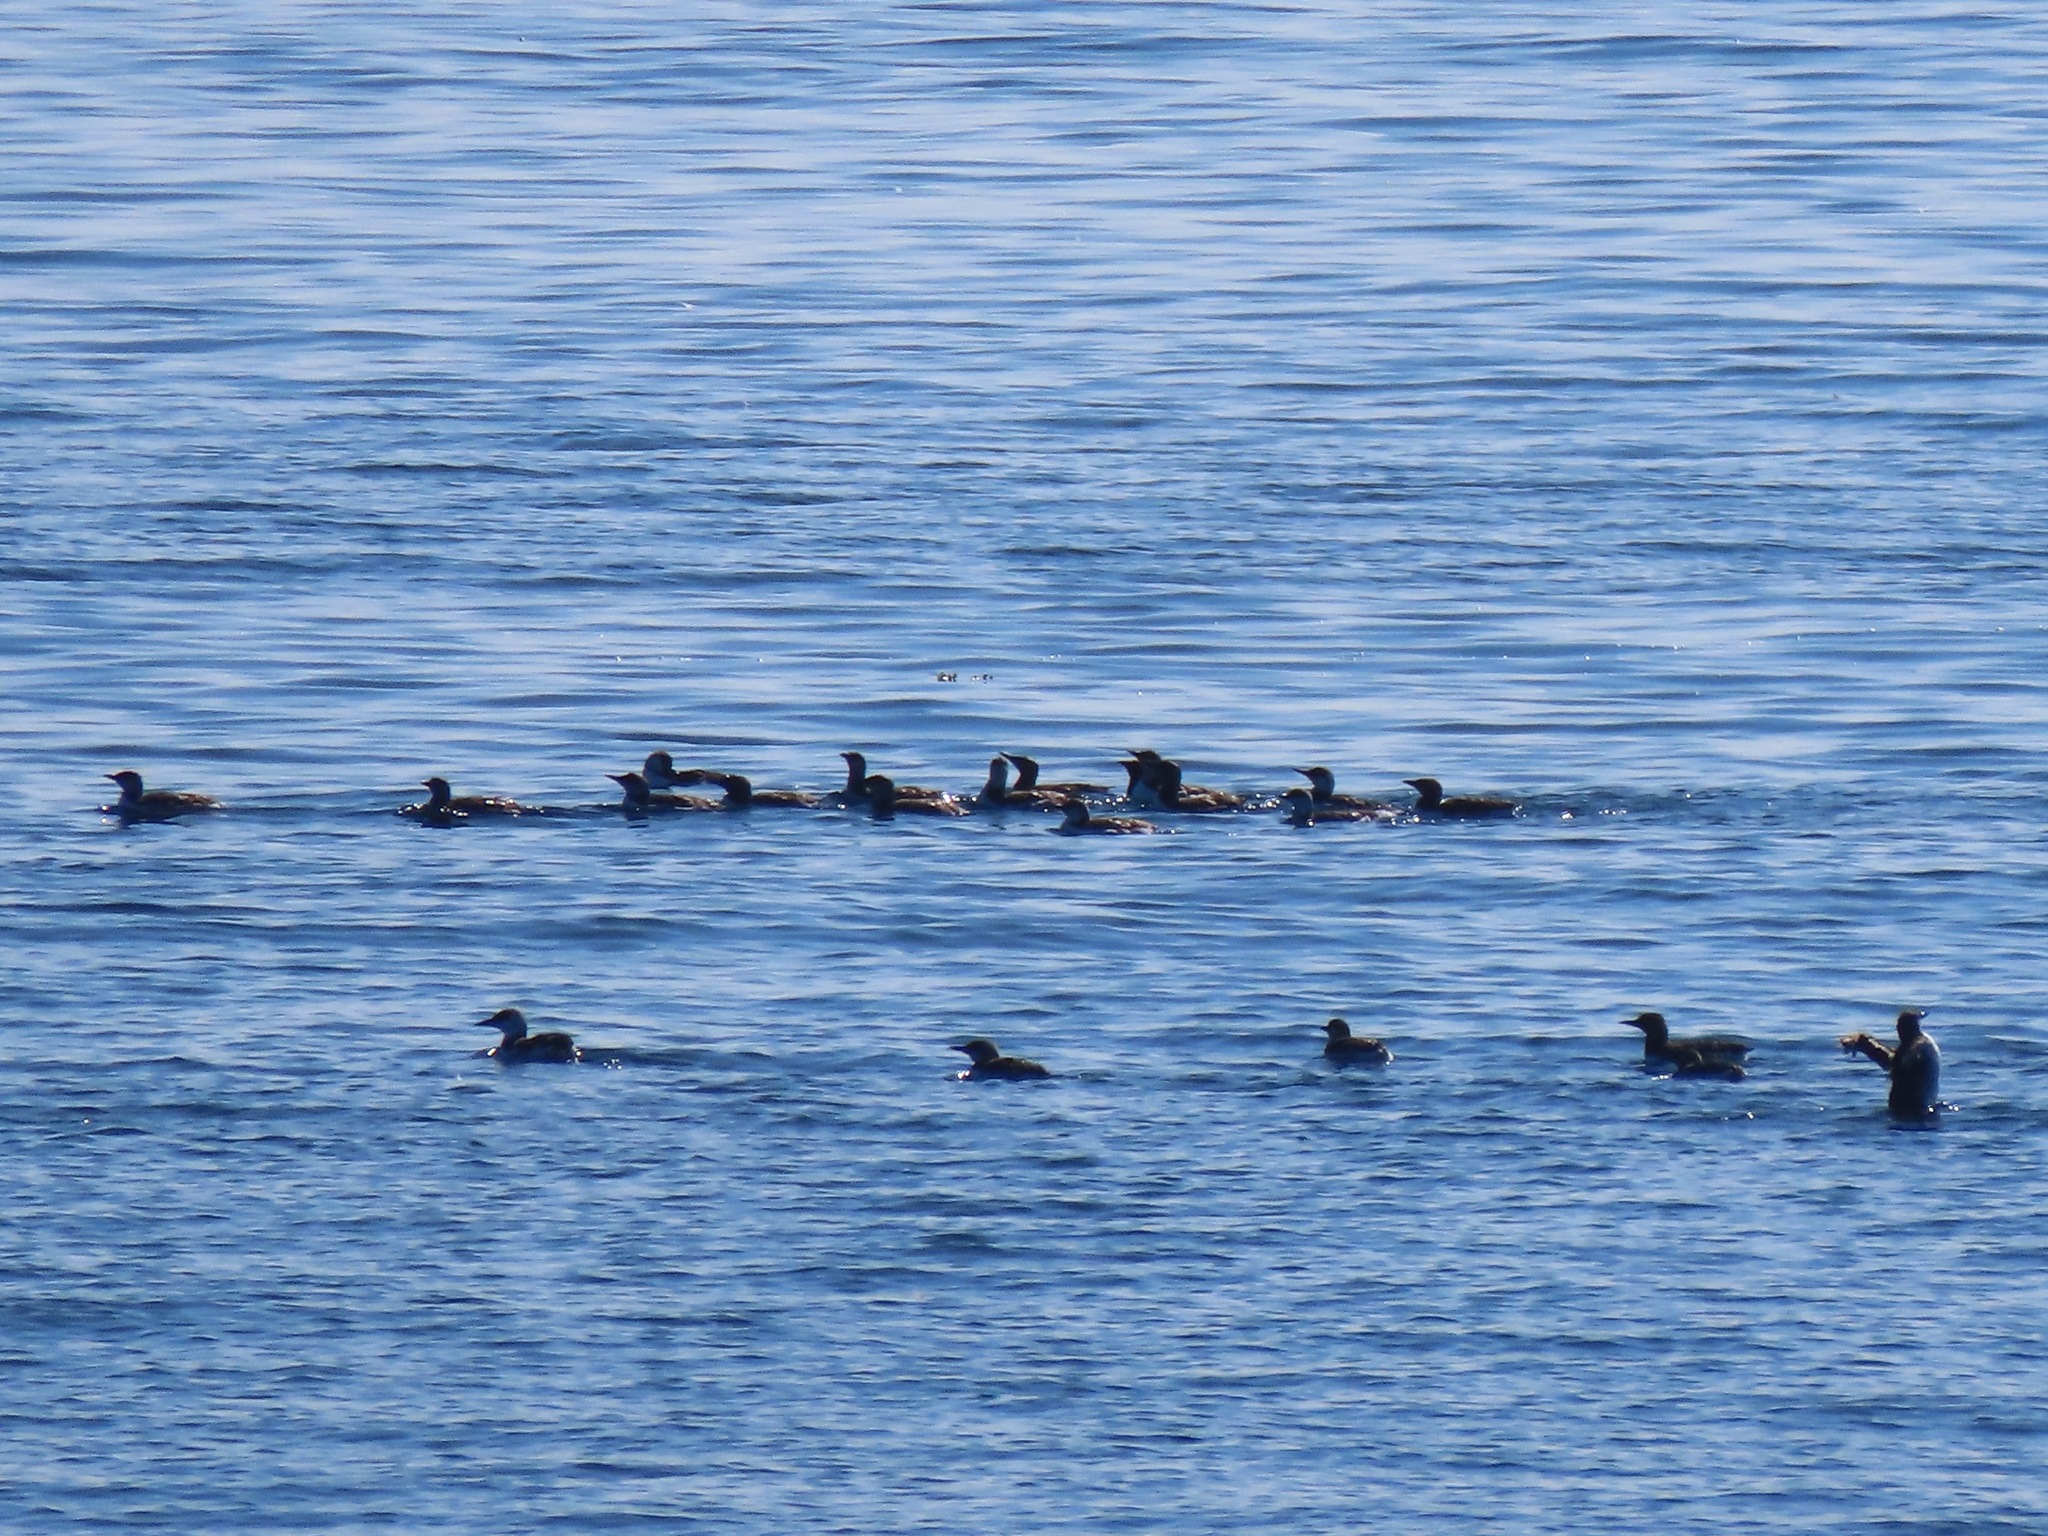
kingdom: Animalia
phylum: Chordata
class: Aves
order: Charadriiformes
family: Alcidae
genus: Uria
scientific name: Uria aalge
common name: Common murre
